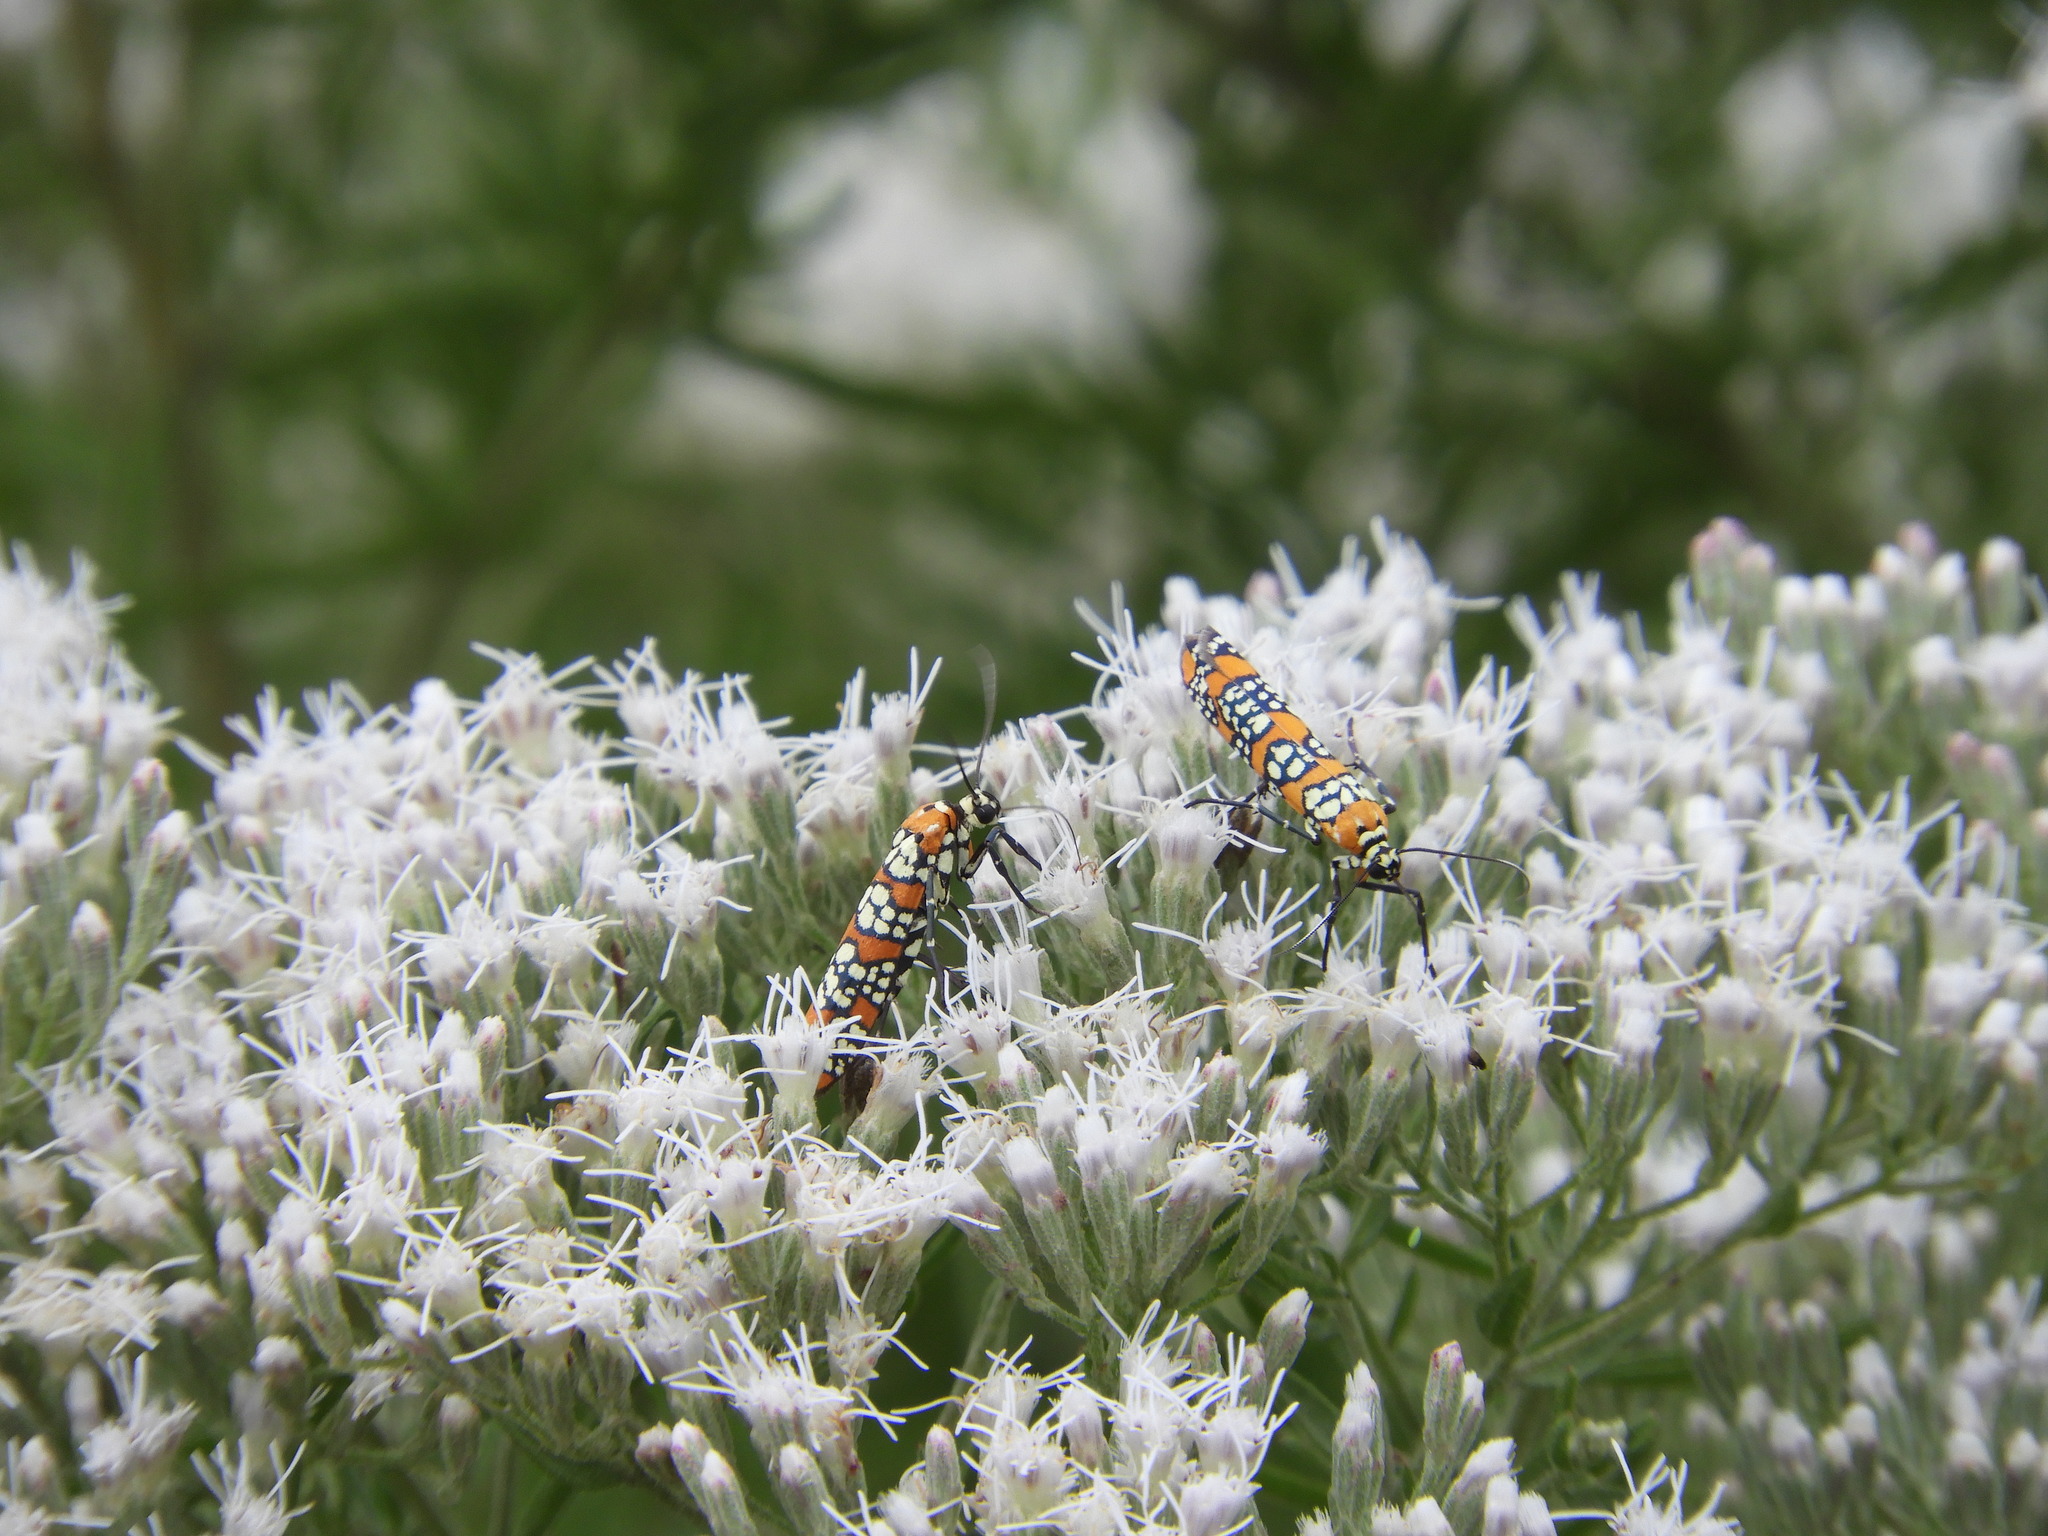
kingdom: Animalia
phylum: Arthropoda
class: Insecta
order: Lepidoptera
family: Attevidae
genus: Atteva
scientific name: Atteva punctella
